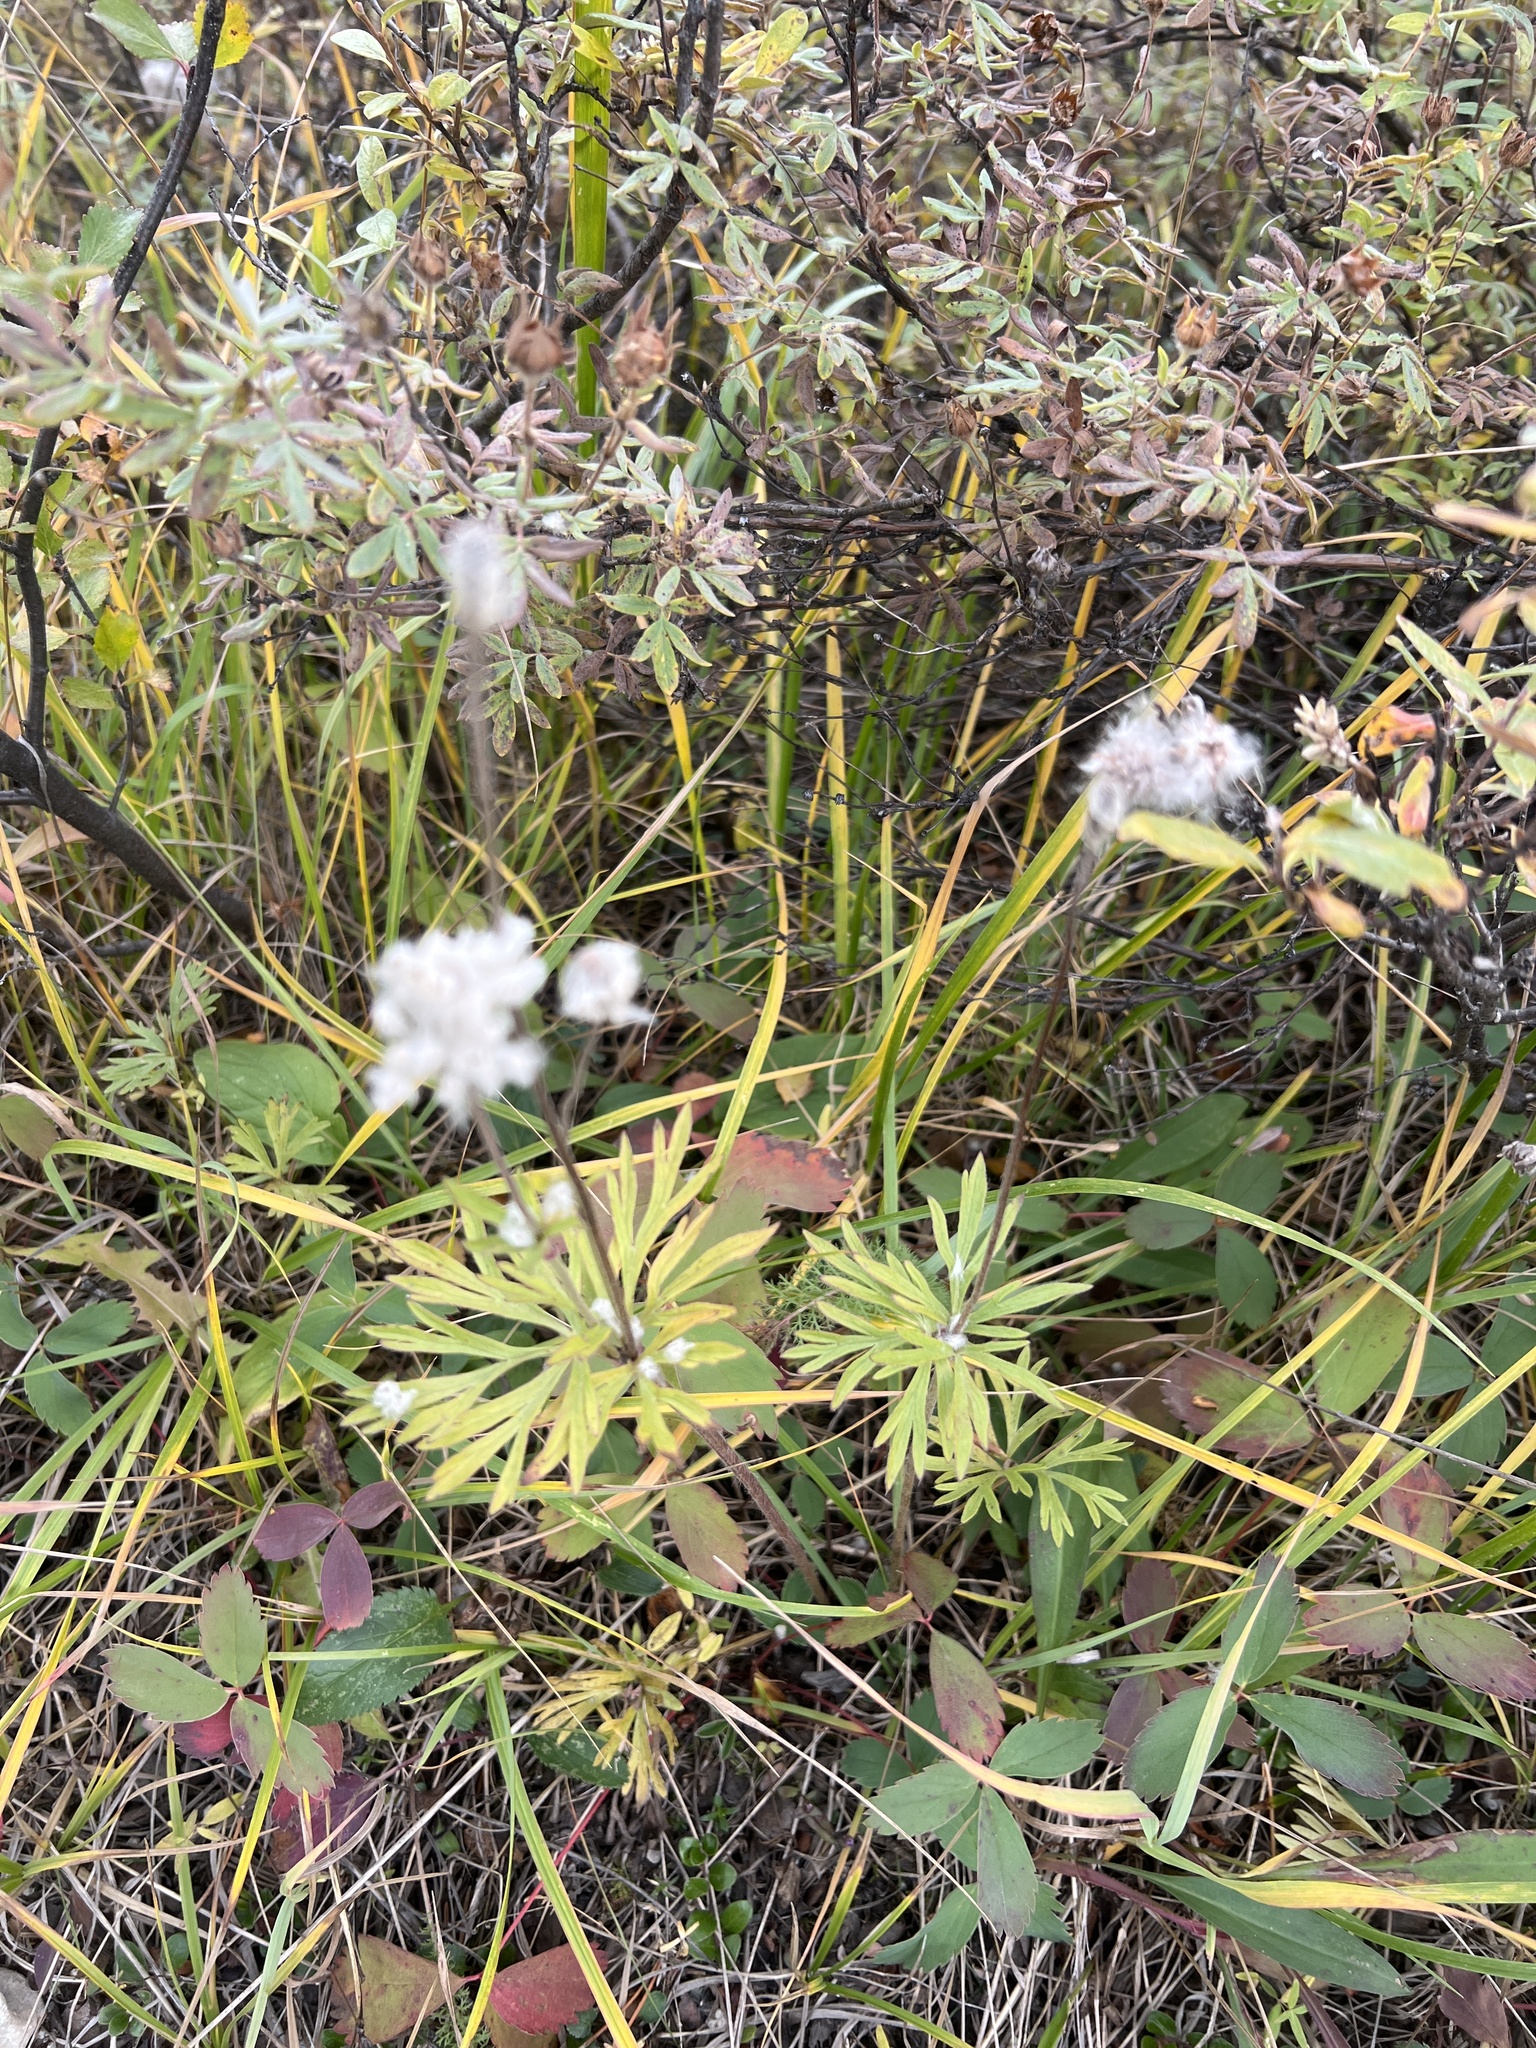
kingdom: Plantae
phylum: Tracheophyta
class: Magnoliopsida
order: Ranunculales
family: Ranunculaceae
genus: Anemone
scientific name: Anemone multifida
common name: Bird's-foot anemone
